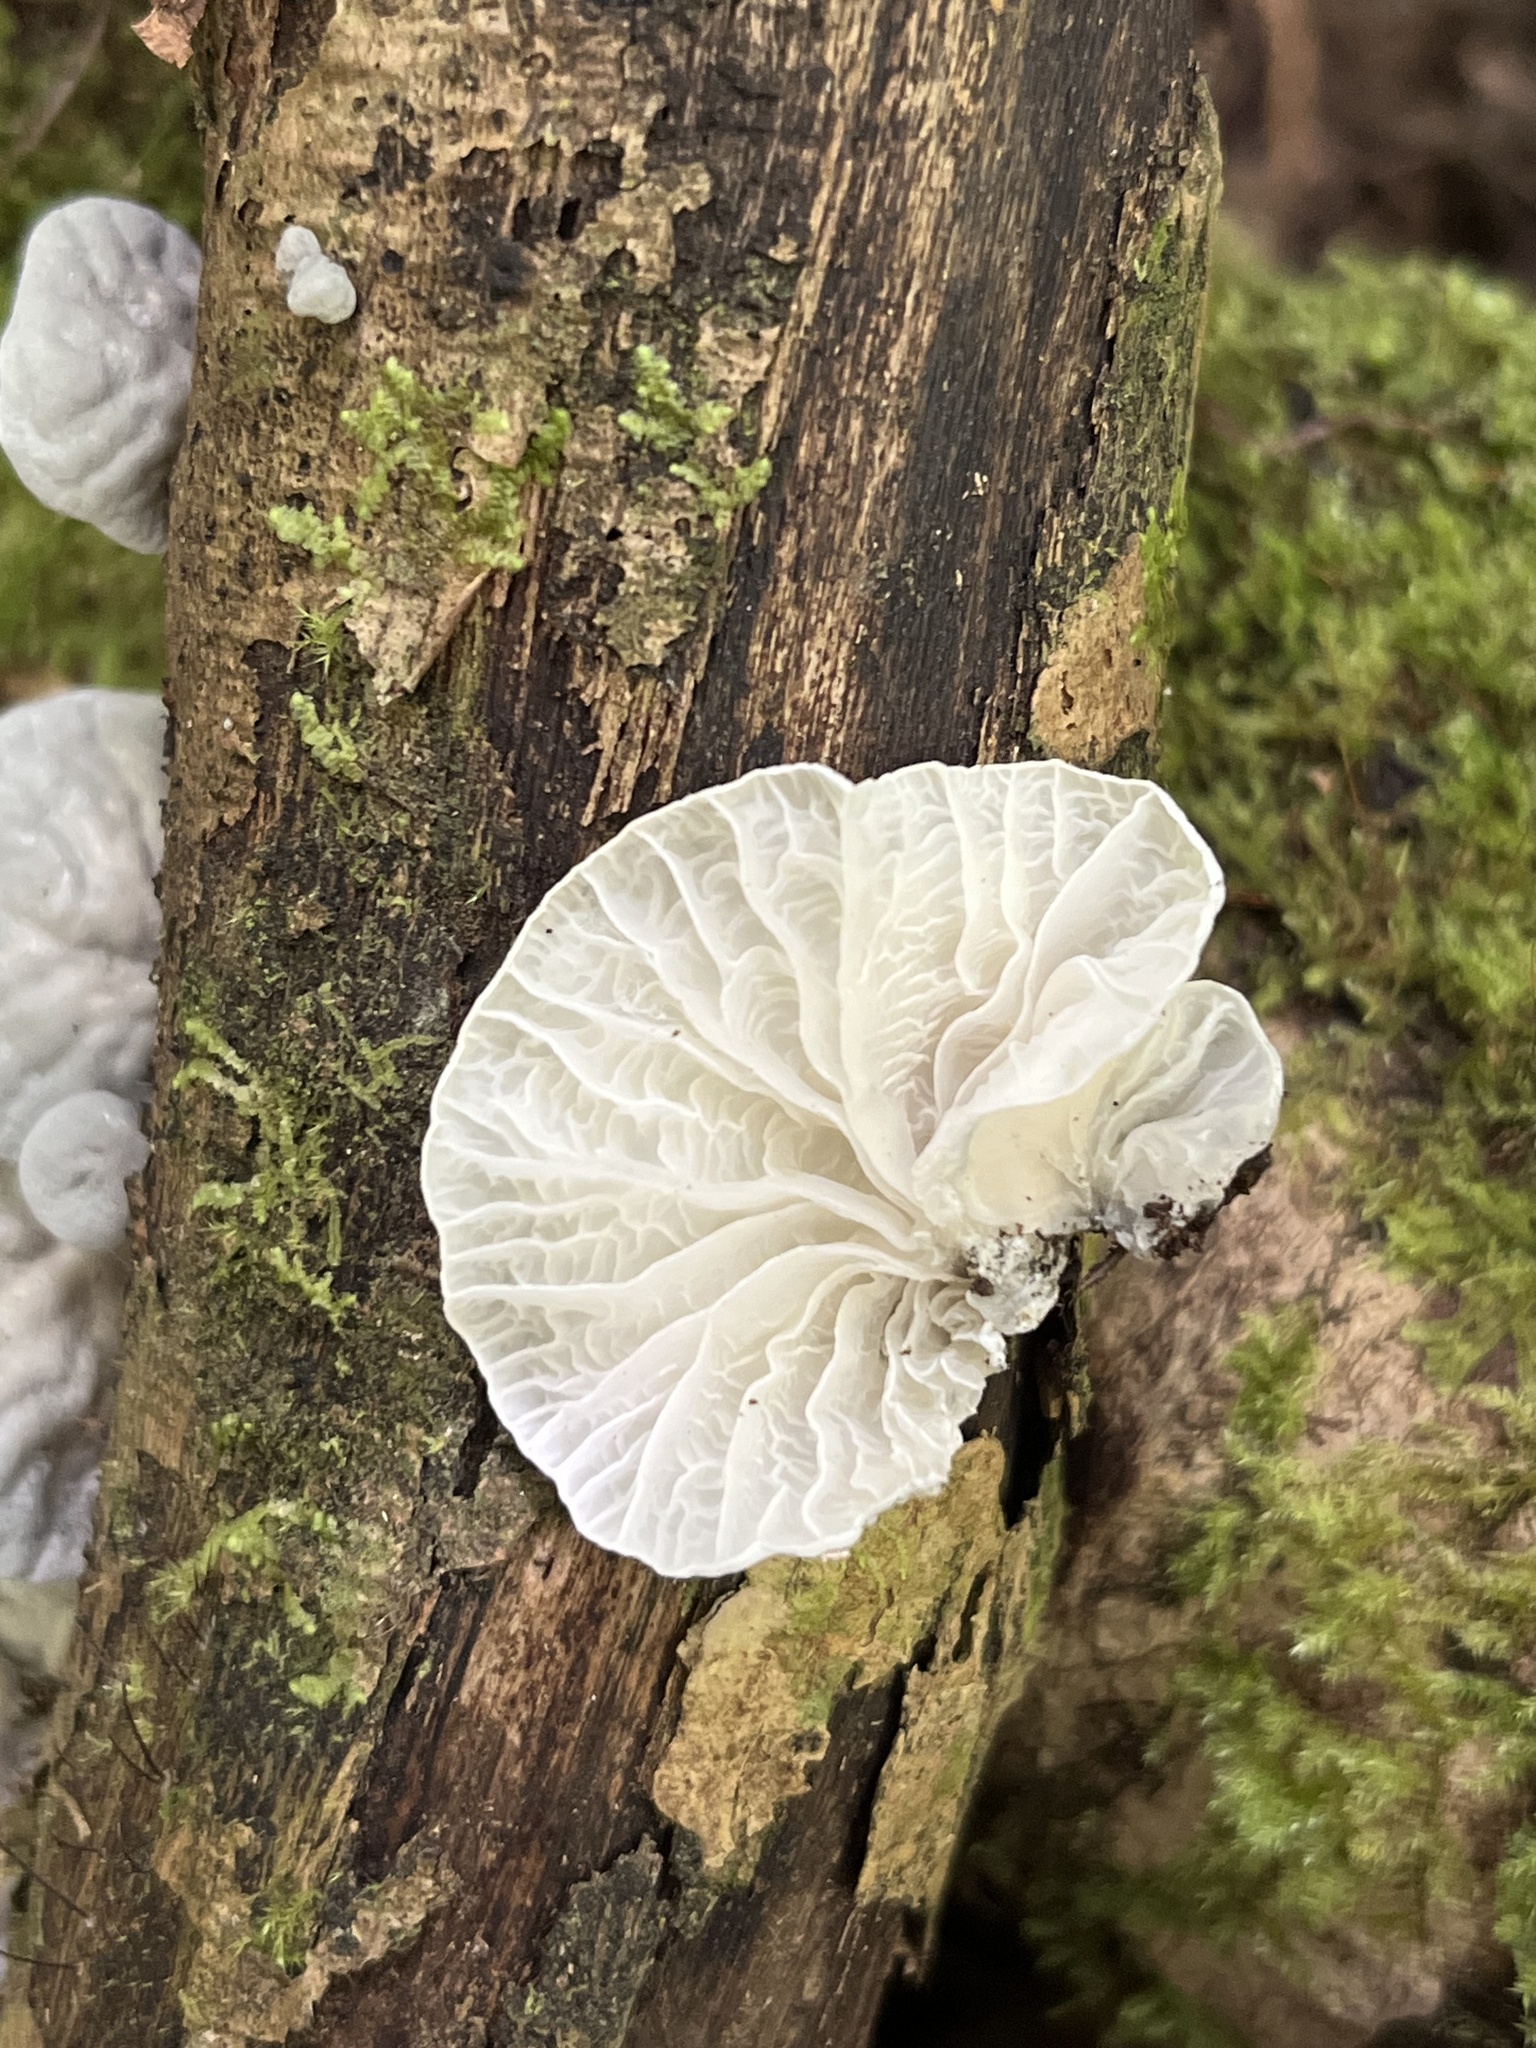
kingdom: Fungi
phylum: Basidiomycota
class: Agaricomycetes
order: Agaricales
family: Marasmiaceae
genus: Campanella
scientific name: Campanella tristis
